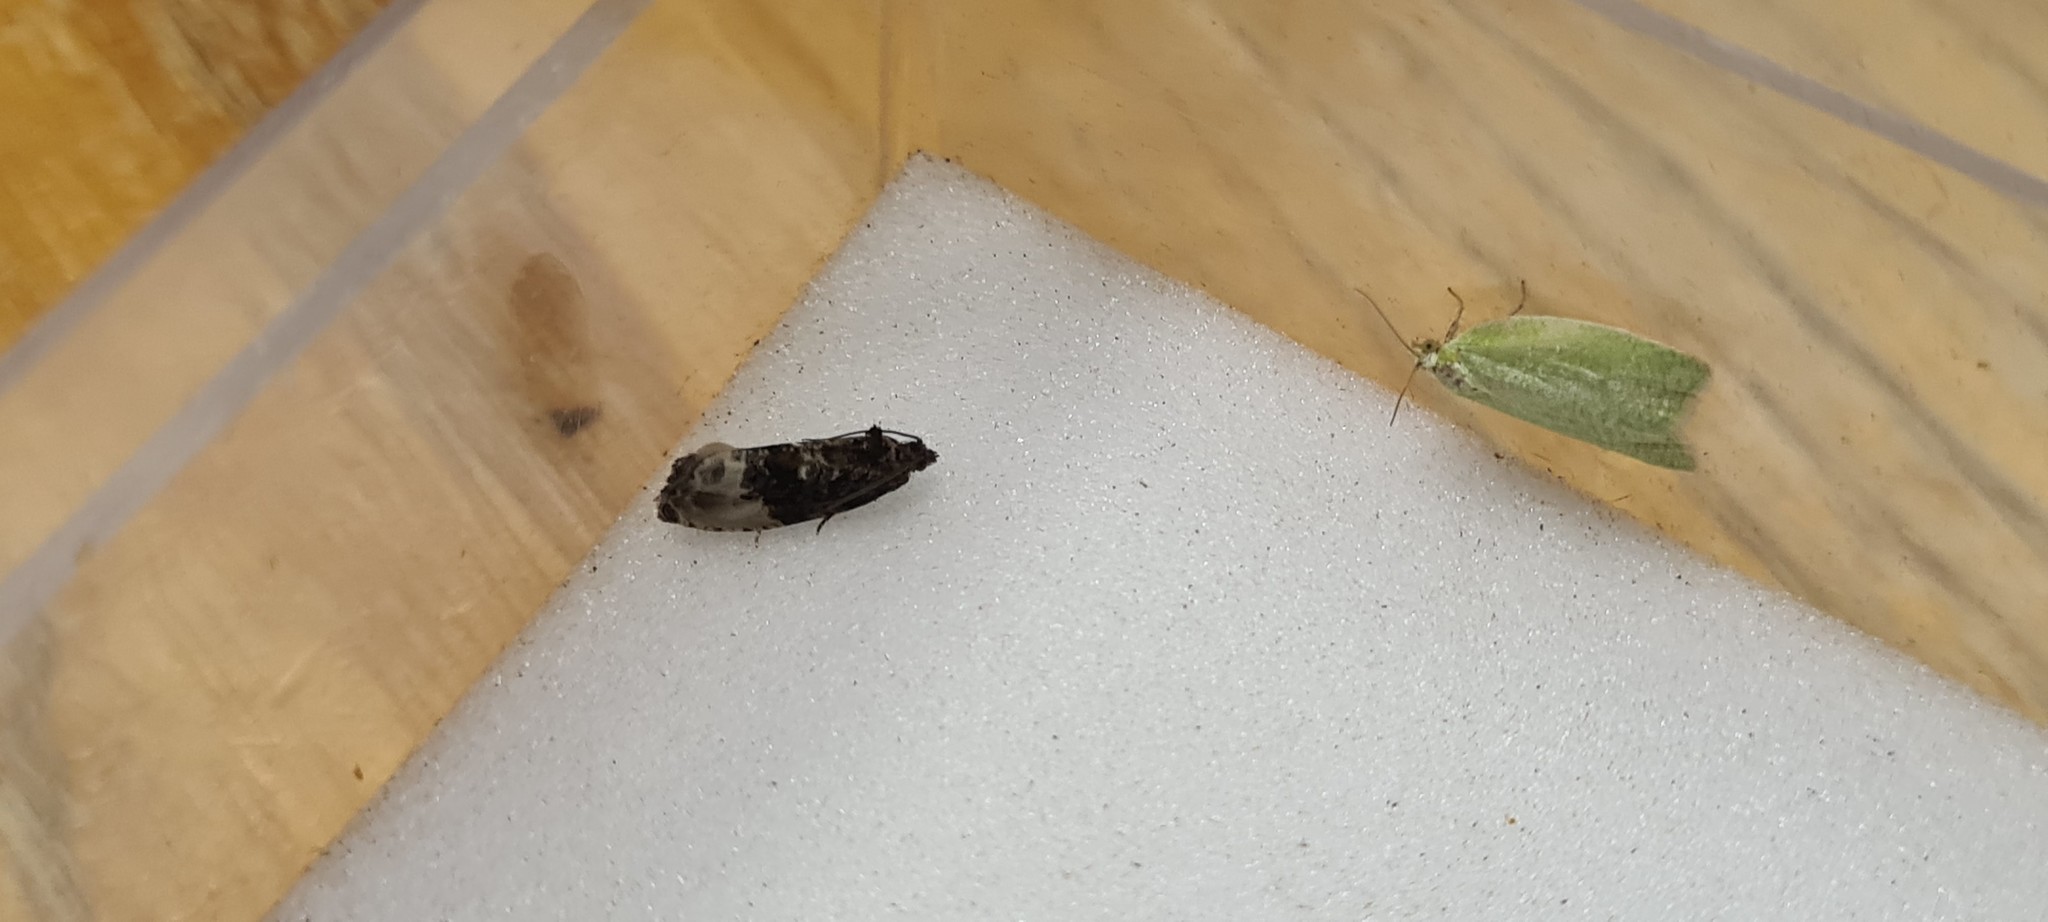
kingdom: Animalia
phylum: Arthropoda
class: Insecta
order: Lepidoptera
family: Tortricidae
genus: Hedya
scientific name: Hedya nubiferana
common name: Marbled orchard tortrix
